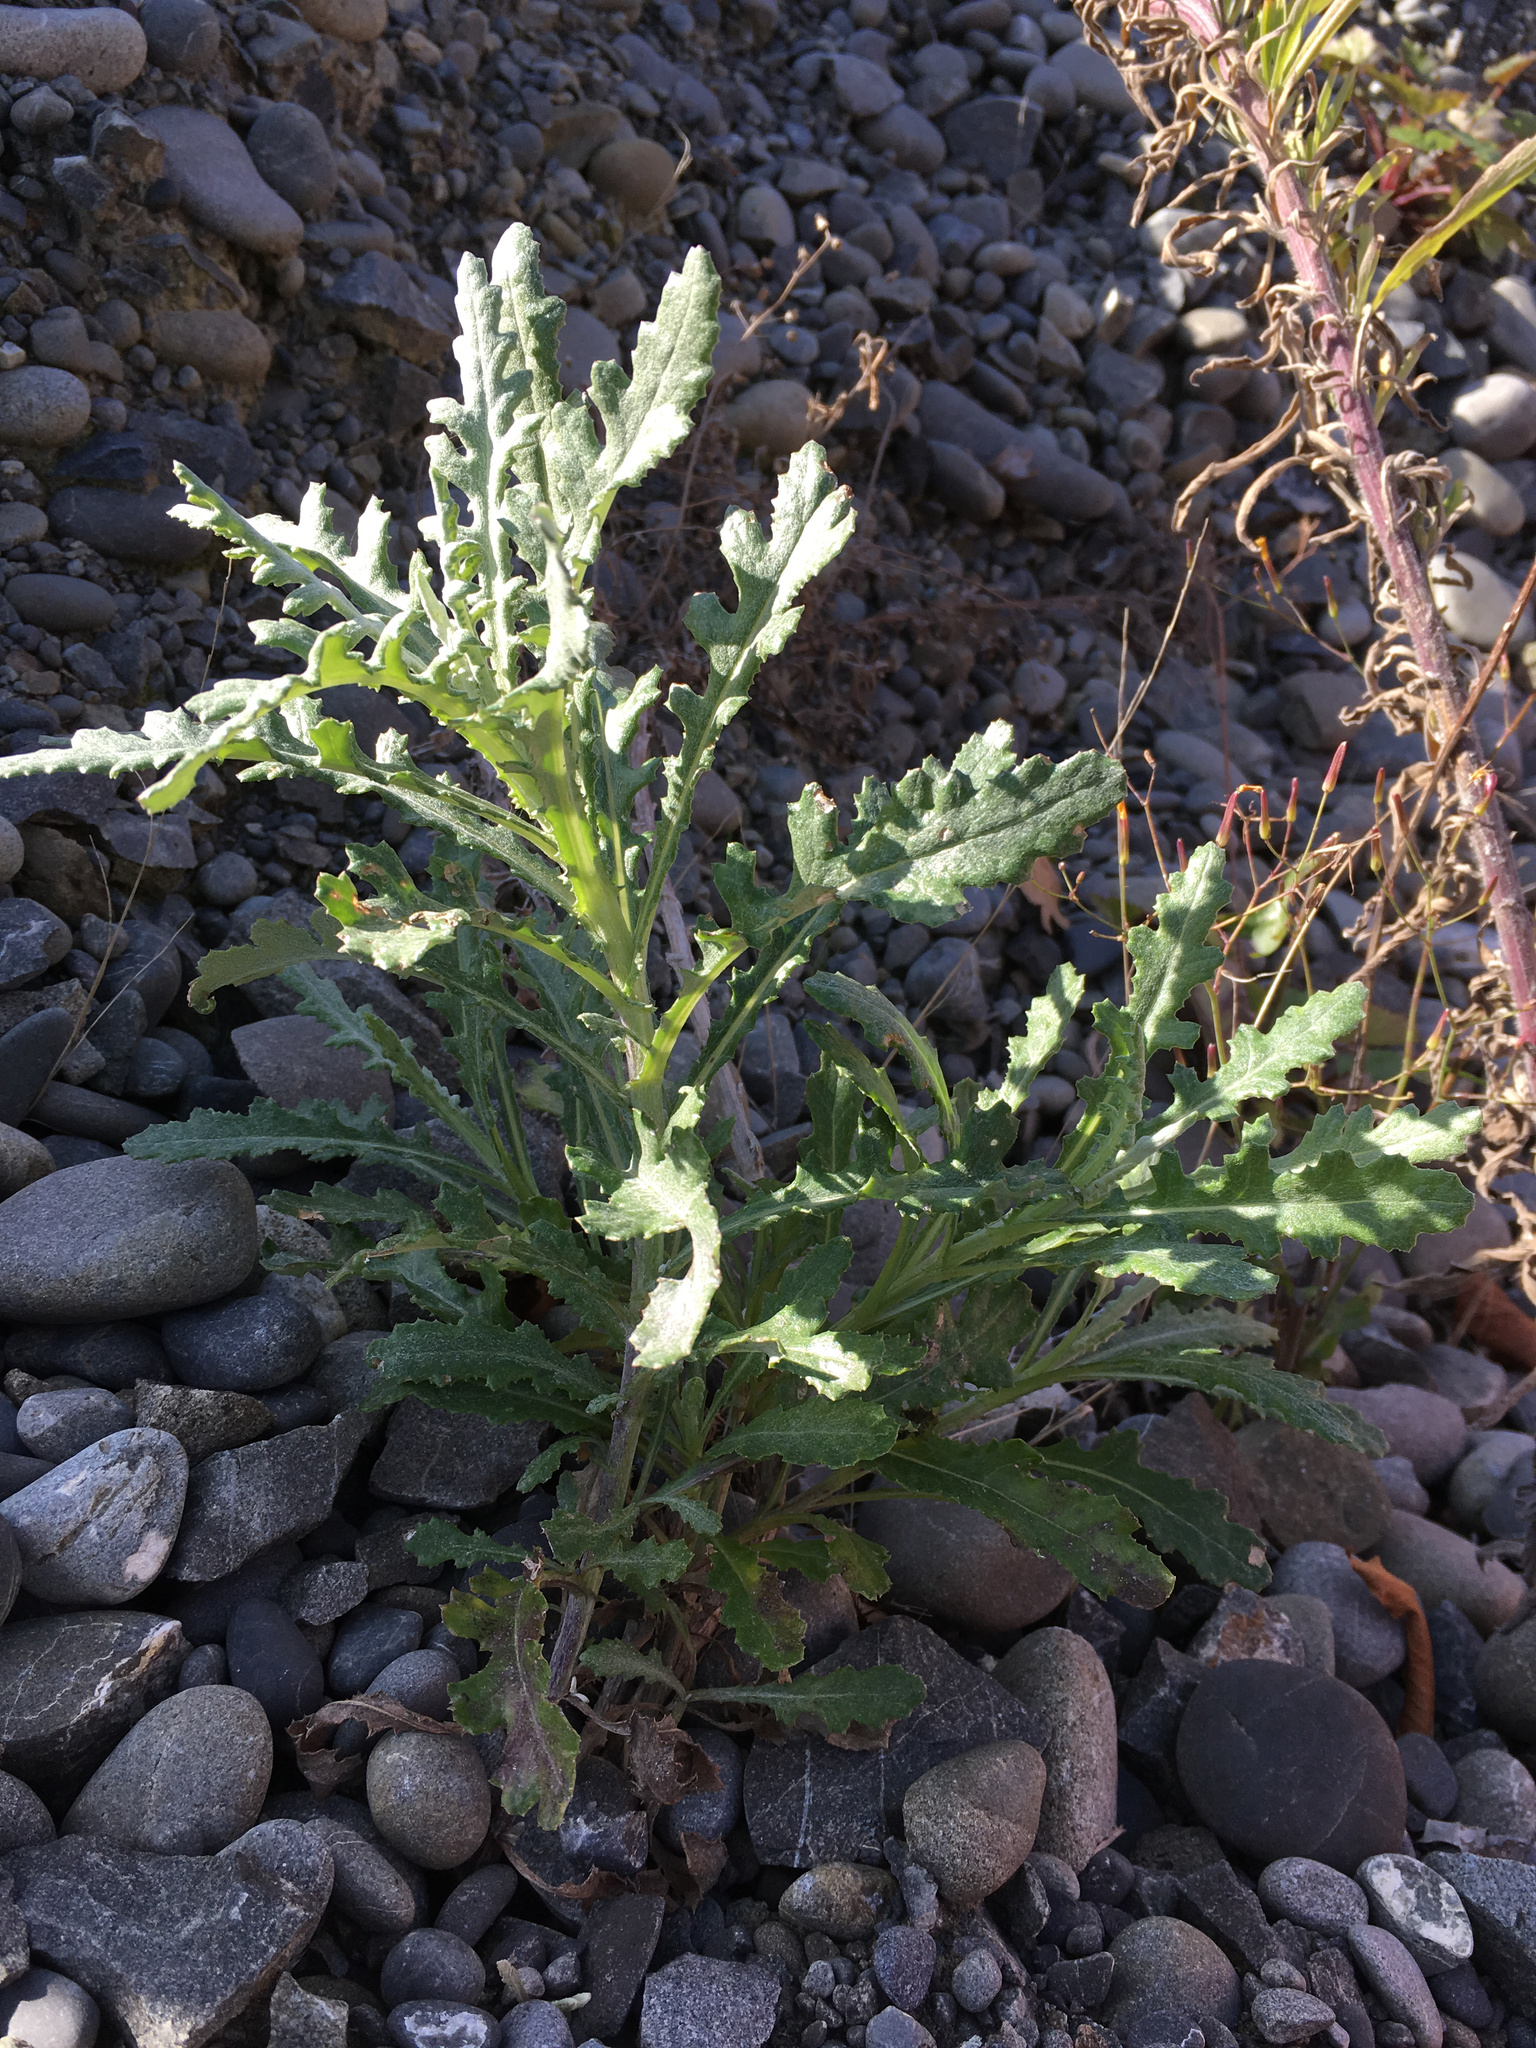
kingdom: Plantae
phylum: Tracheophyta
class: Magnoliopsida
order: Asterales
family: Asteraceae
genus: Senecio
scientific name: Senecio glomeratus
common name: Cutleaf burnweed
